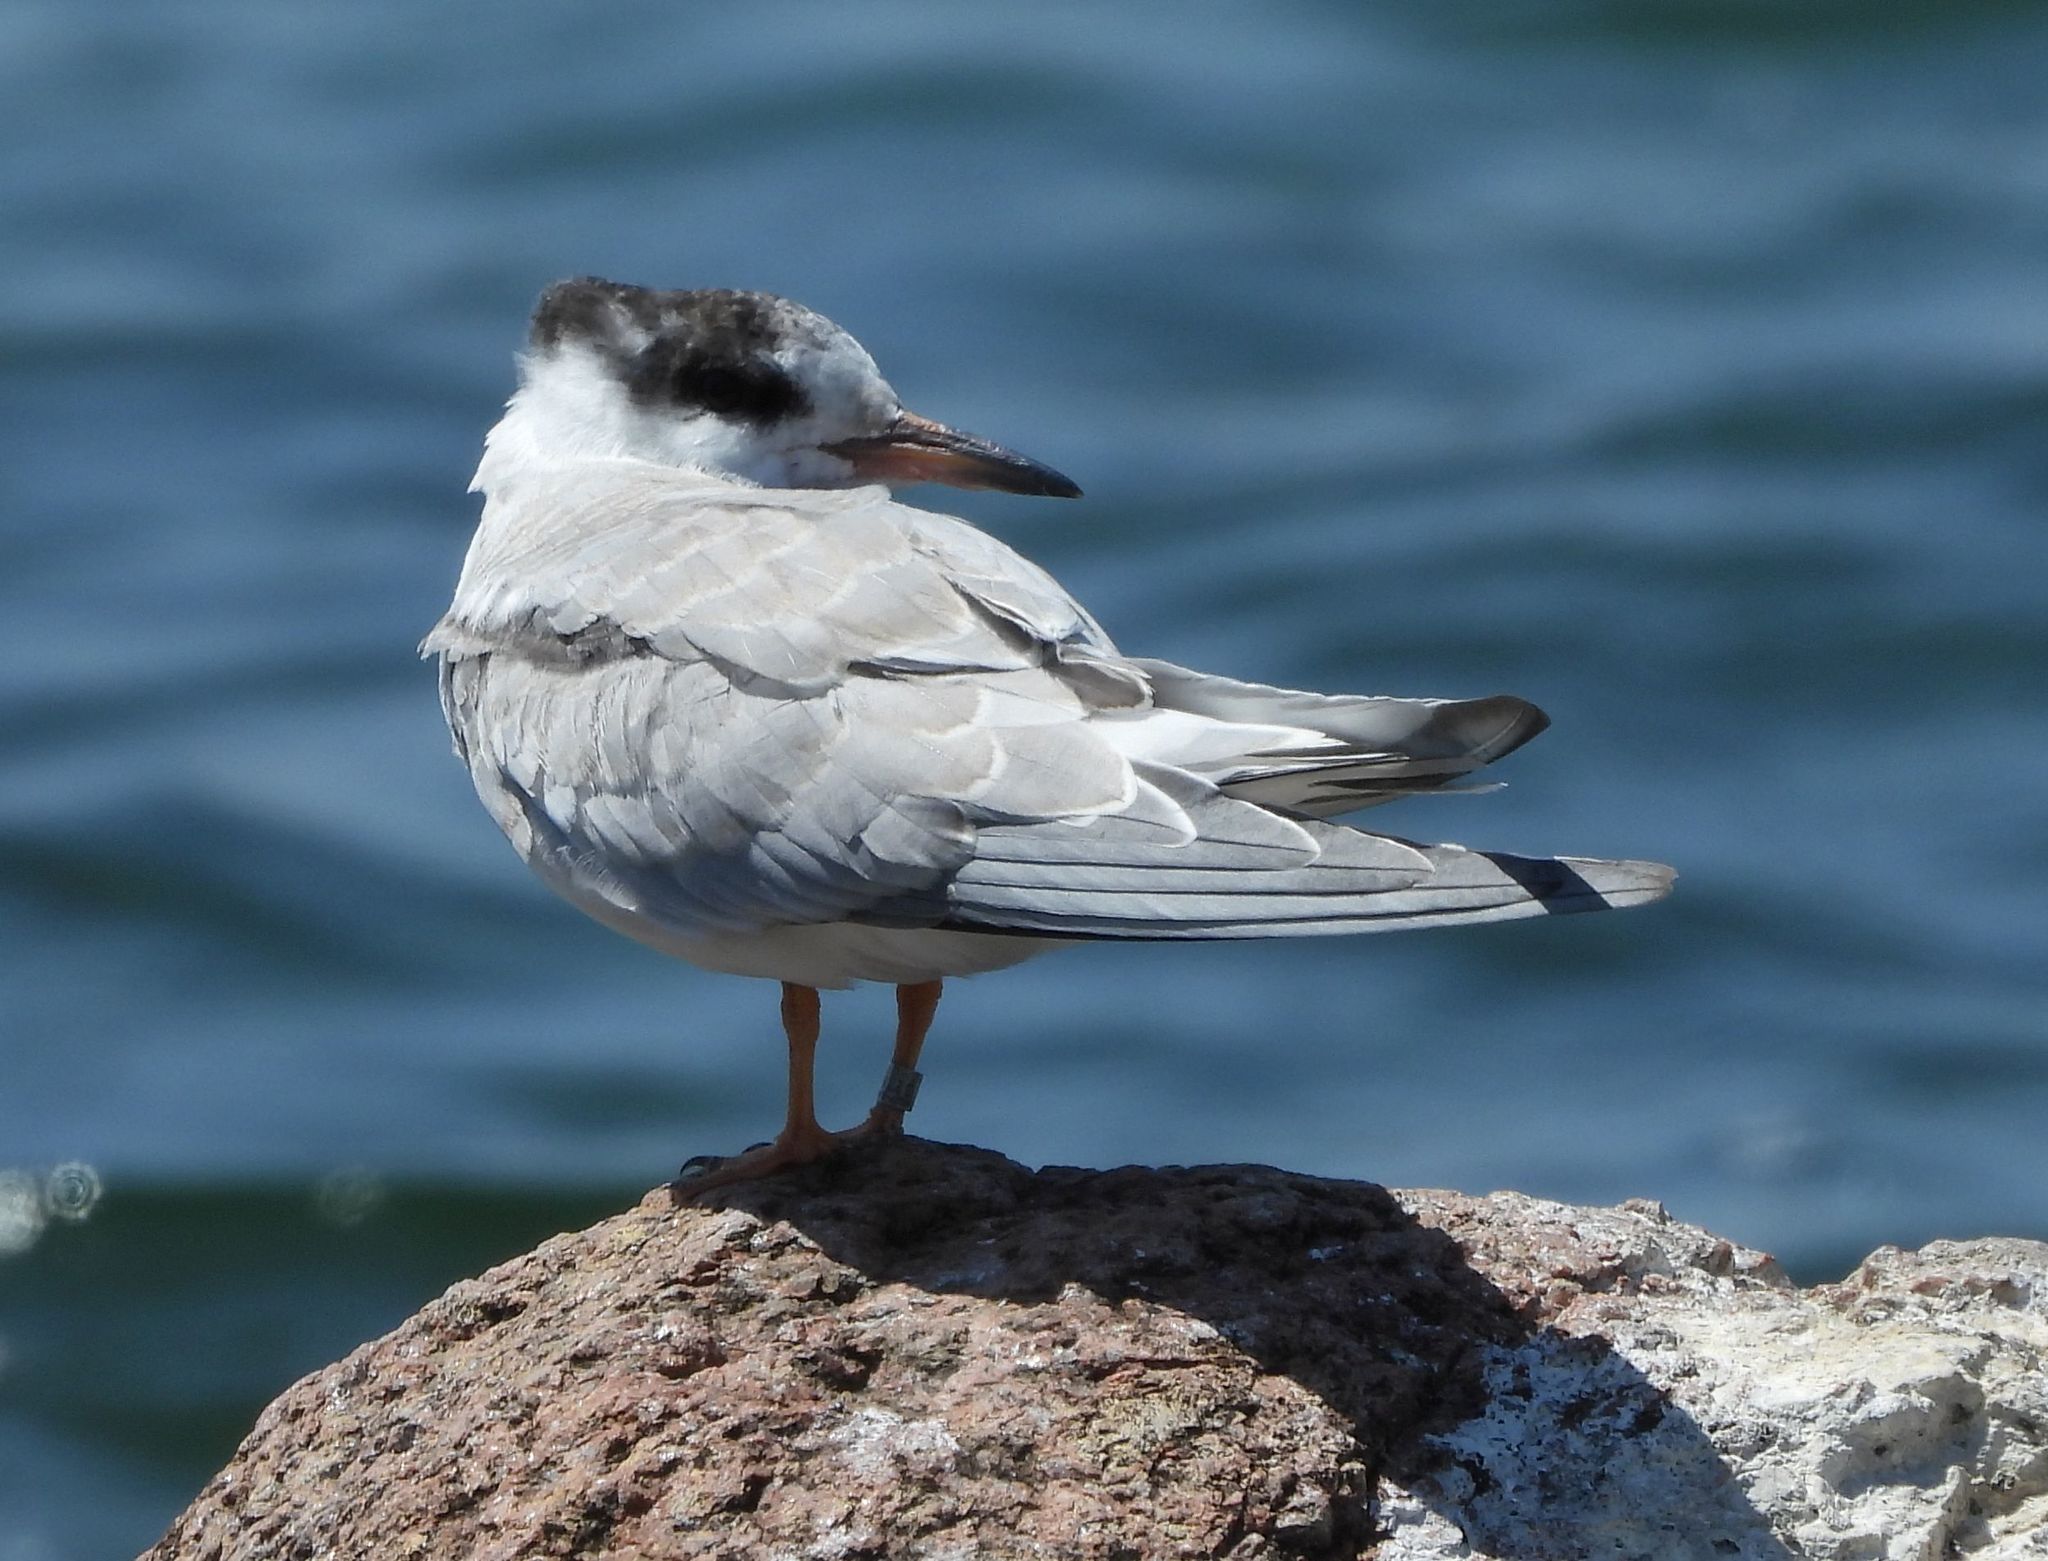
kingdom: Animalia
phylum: Chordata
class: Aves
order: Charadriiformes
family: Laridae
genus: Sterna
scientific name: Sterna hirundo
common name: Common tern
